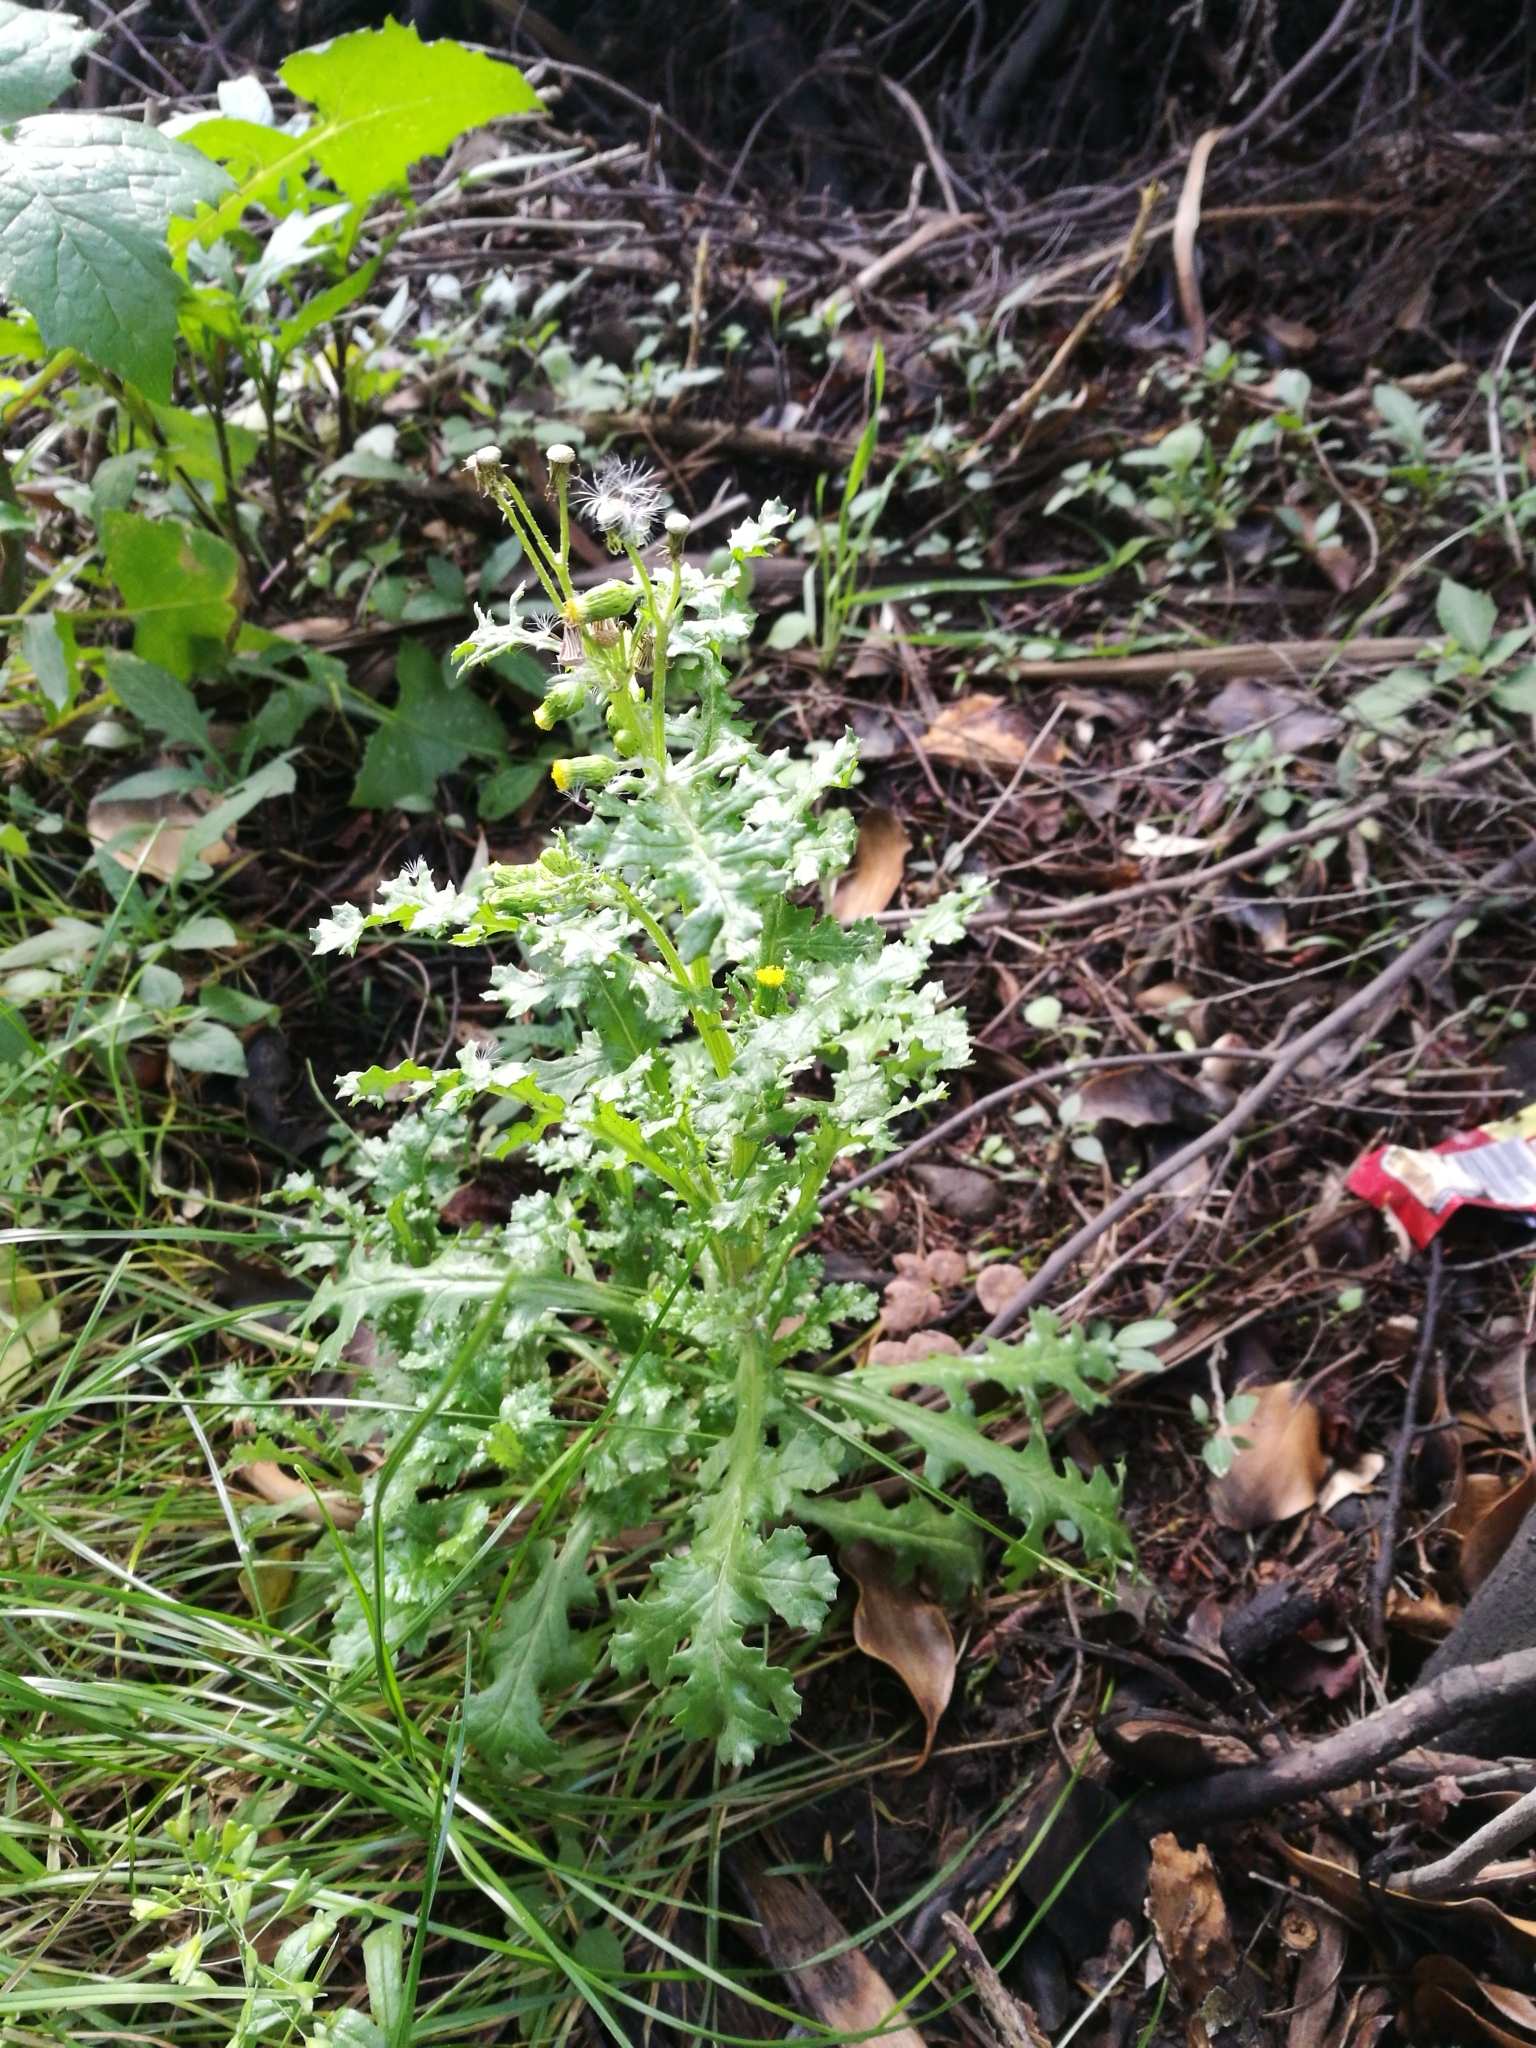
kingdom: Plantae
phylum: Tracheophyta
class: Magnoliopsida
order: Asterales
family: Asteraceae
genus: Senecio
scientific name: Senecio vulgaris
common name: Old-man-in-the-spring
